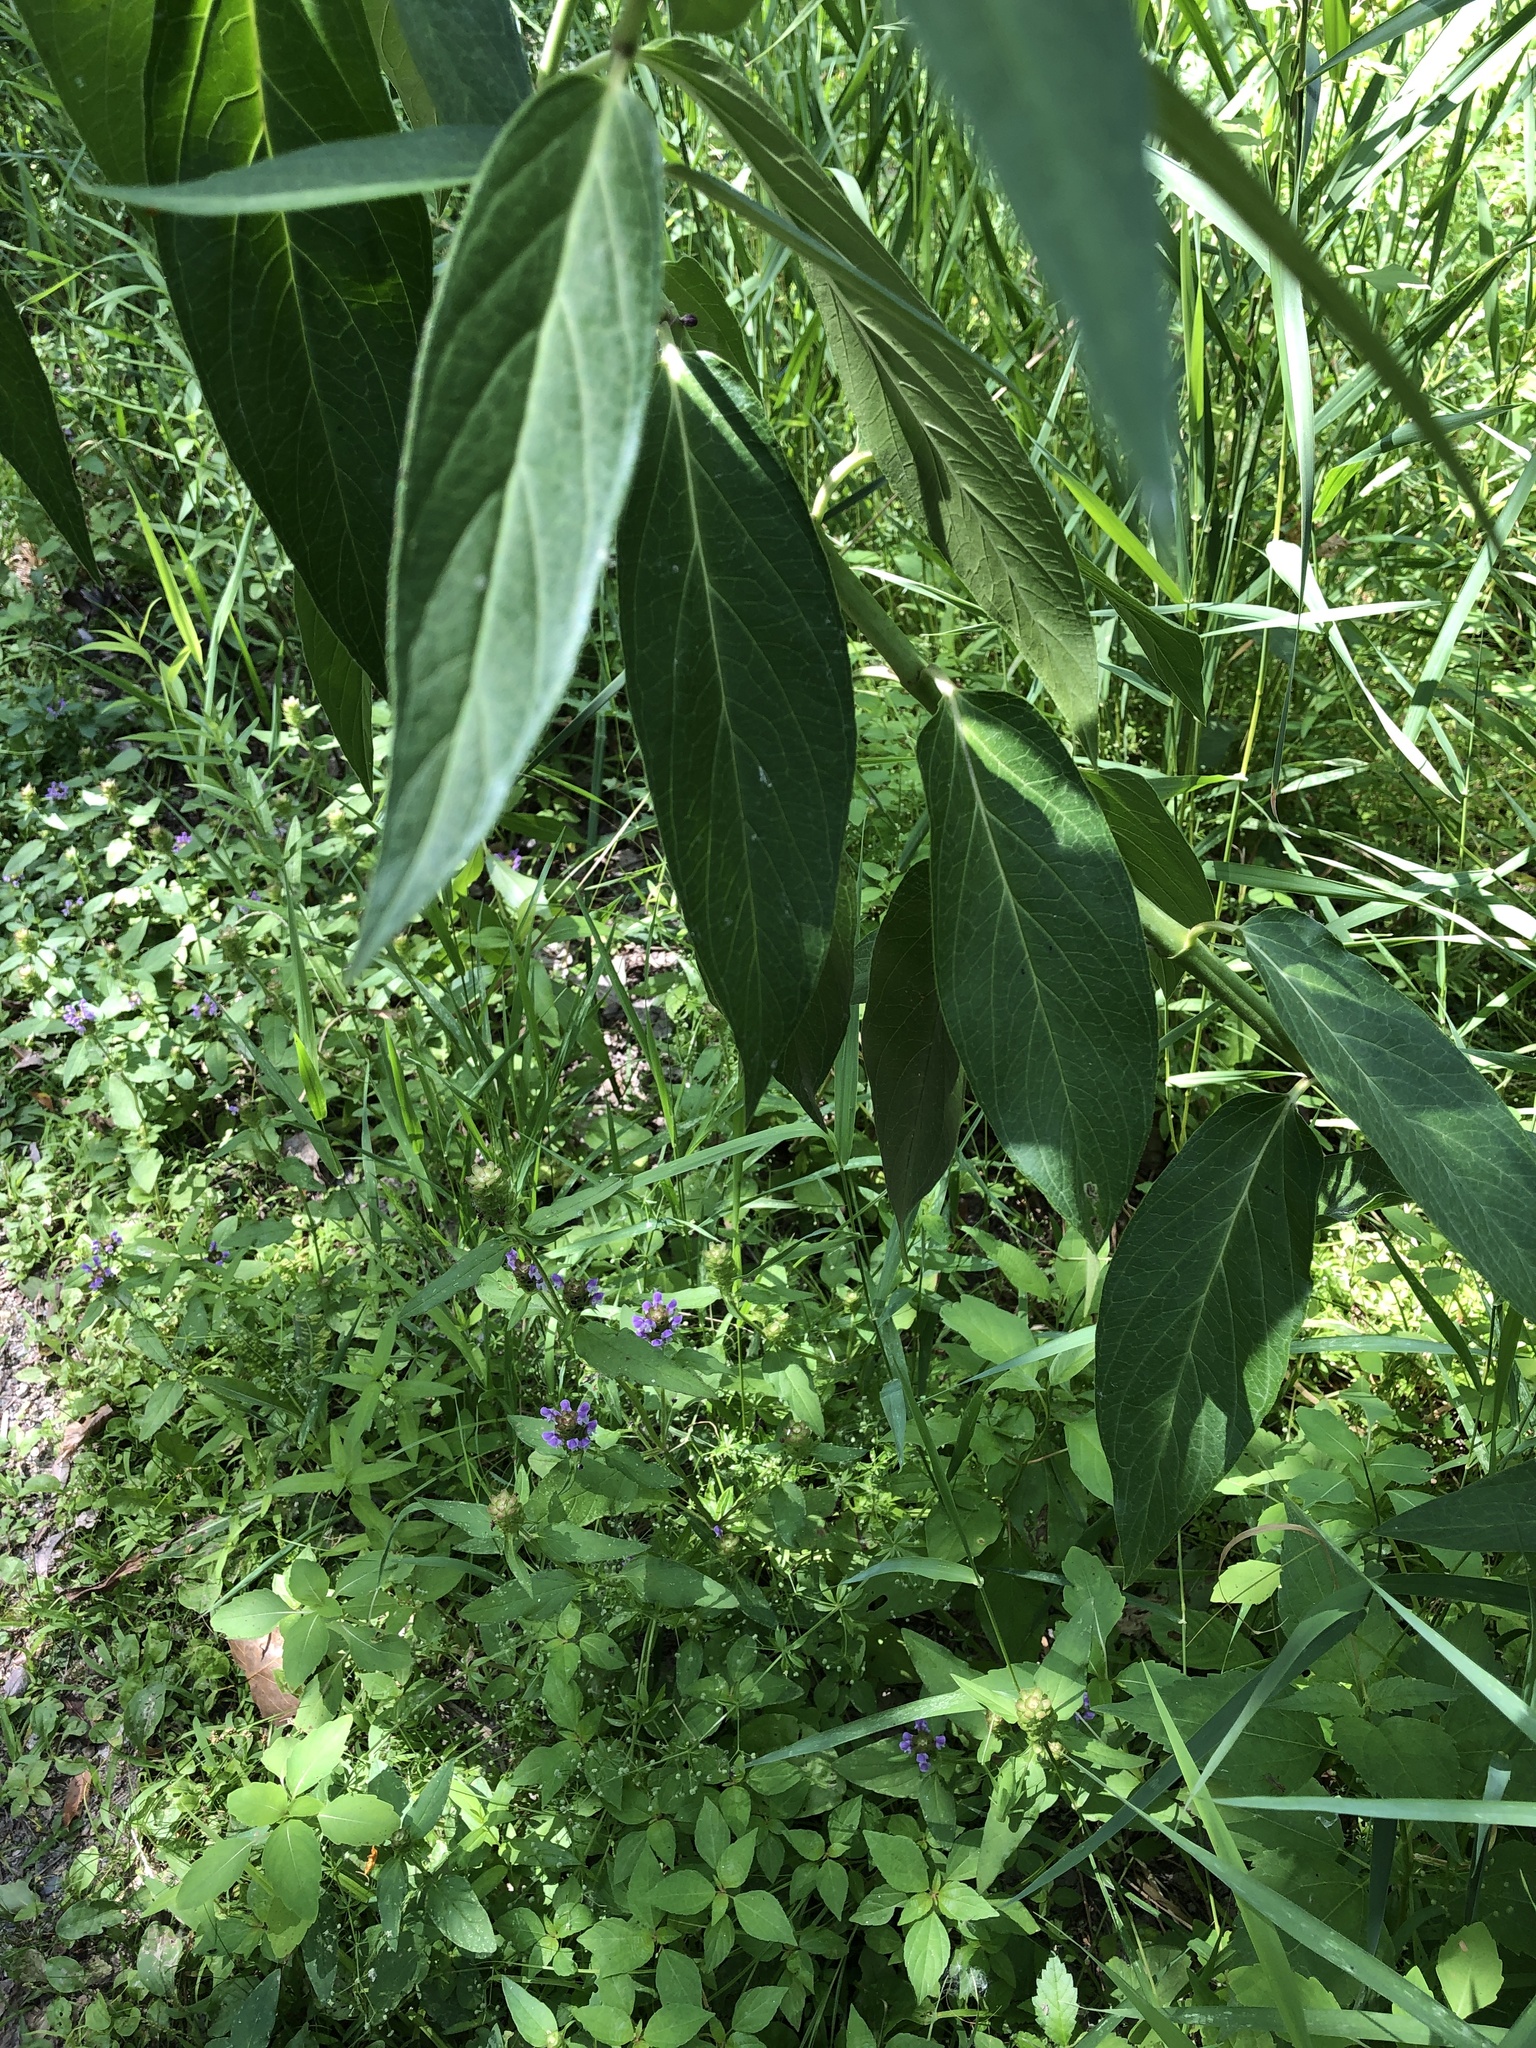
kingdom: Plantae
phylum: Tracheophyta
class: Magnoliopsida
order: Gentianales
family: Apocynaceae
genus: Asclepias
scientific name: Asclepias incarnata
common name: Swamp milkweed
